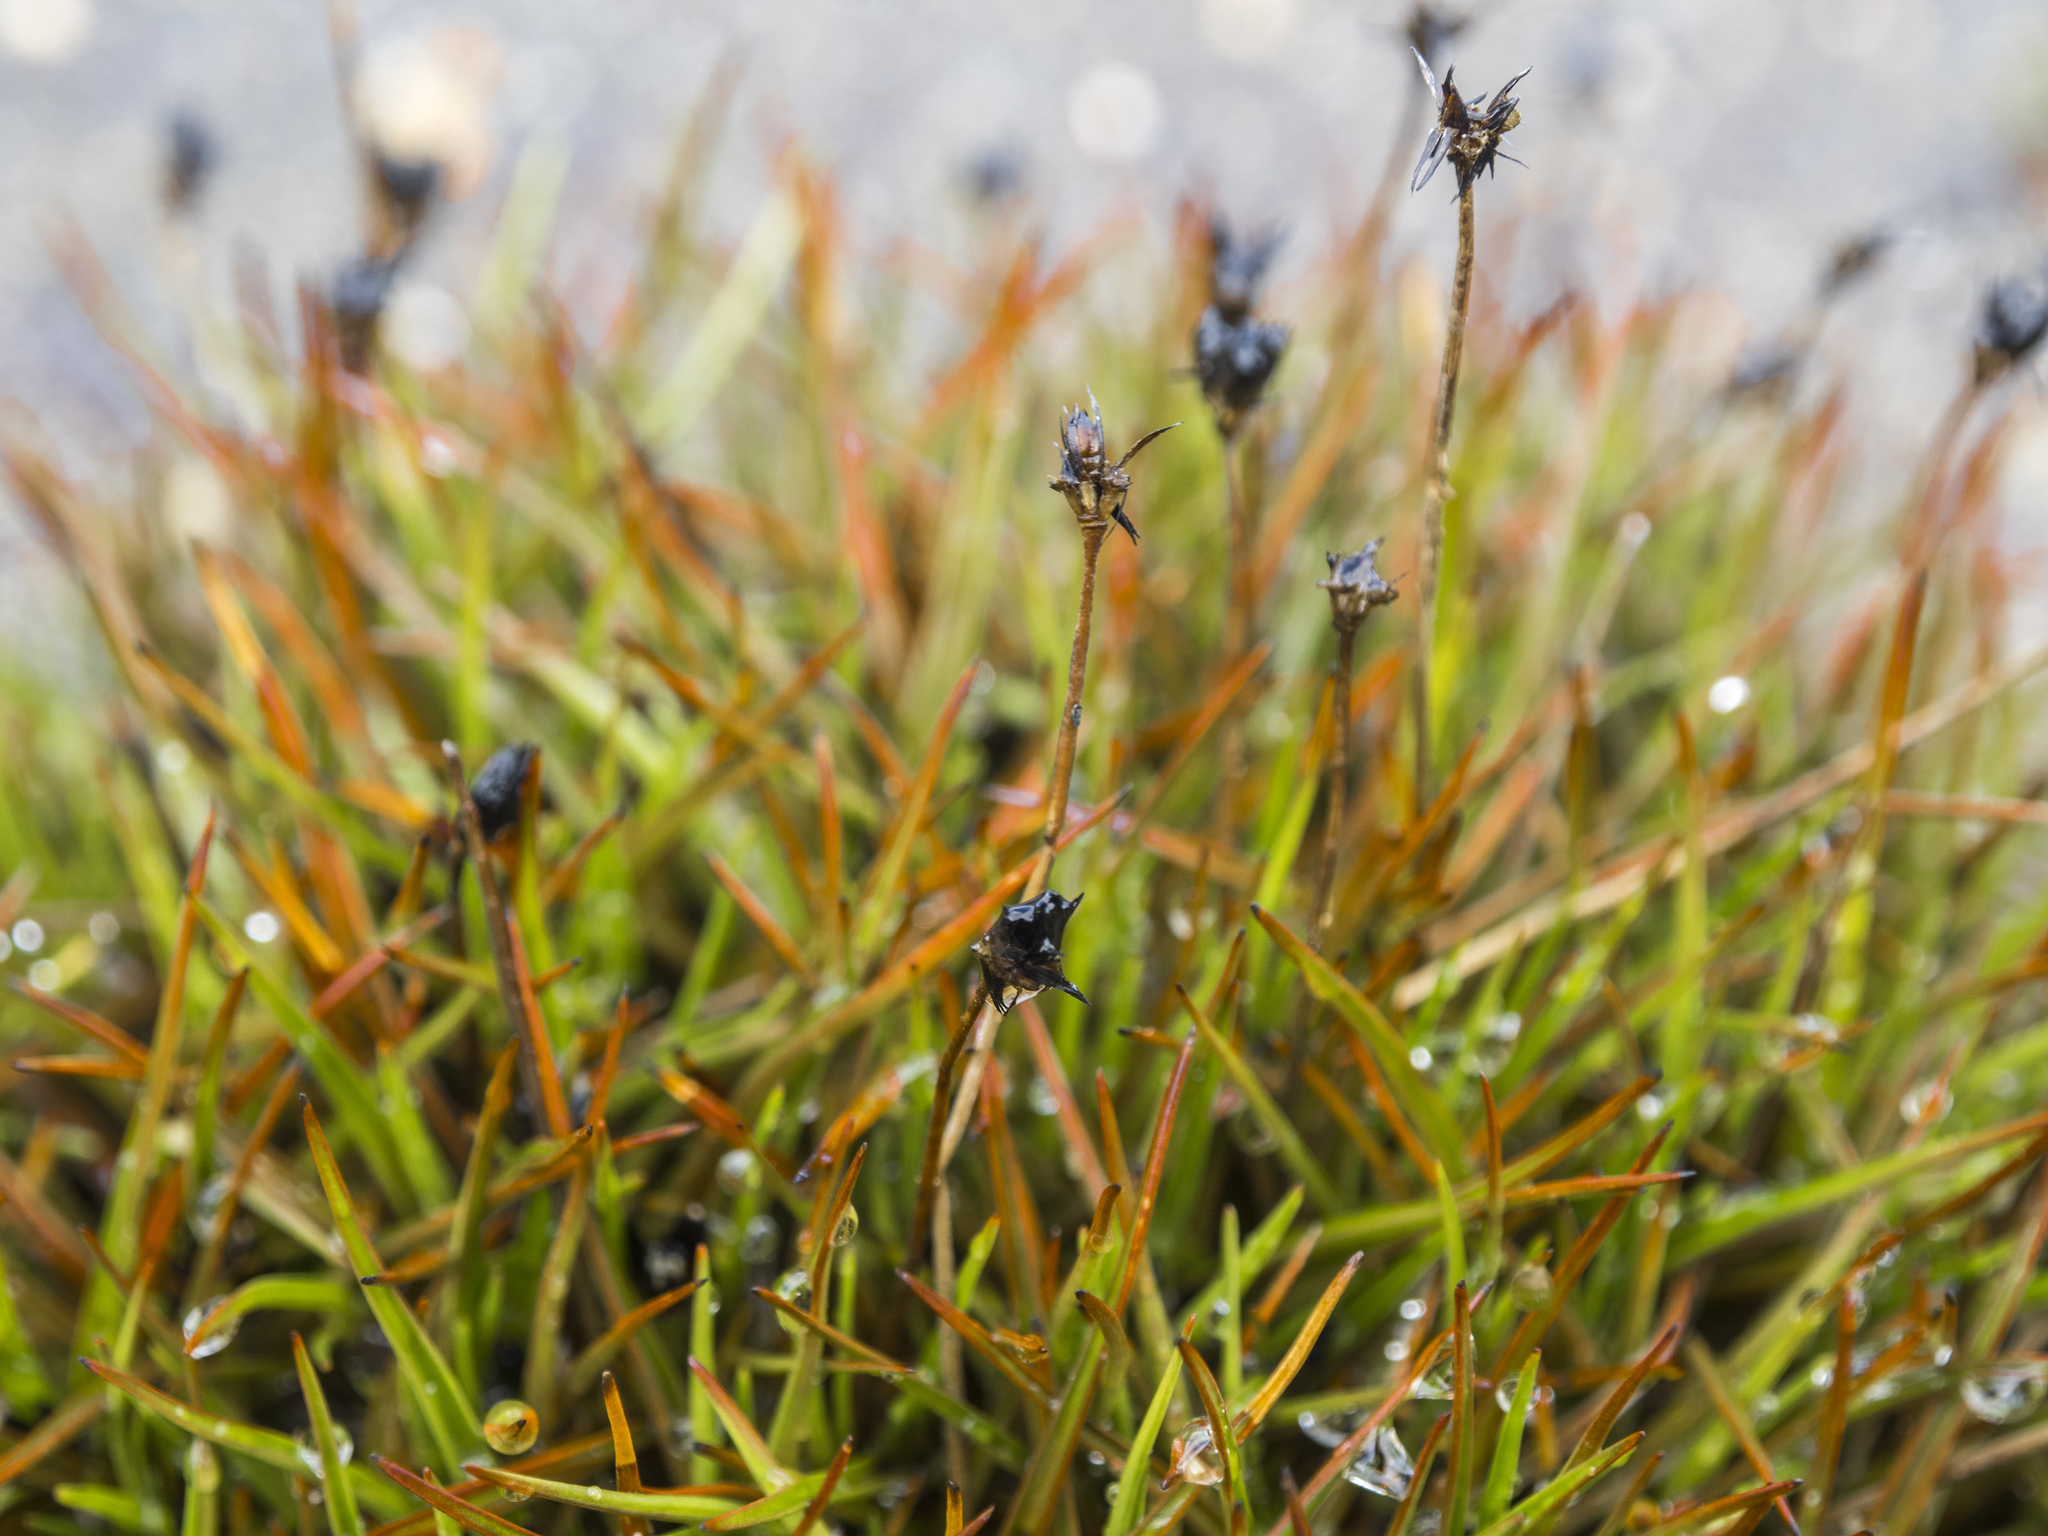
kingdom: Plantae
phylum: Tracheophyta
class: Liliopsida
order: Poales
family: Juncaceae
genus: Juncus
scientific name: Juncus antarcticus
